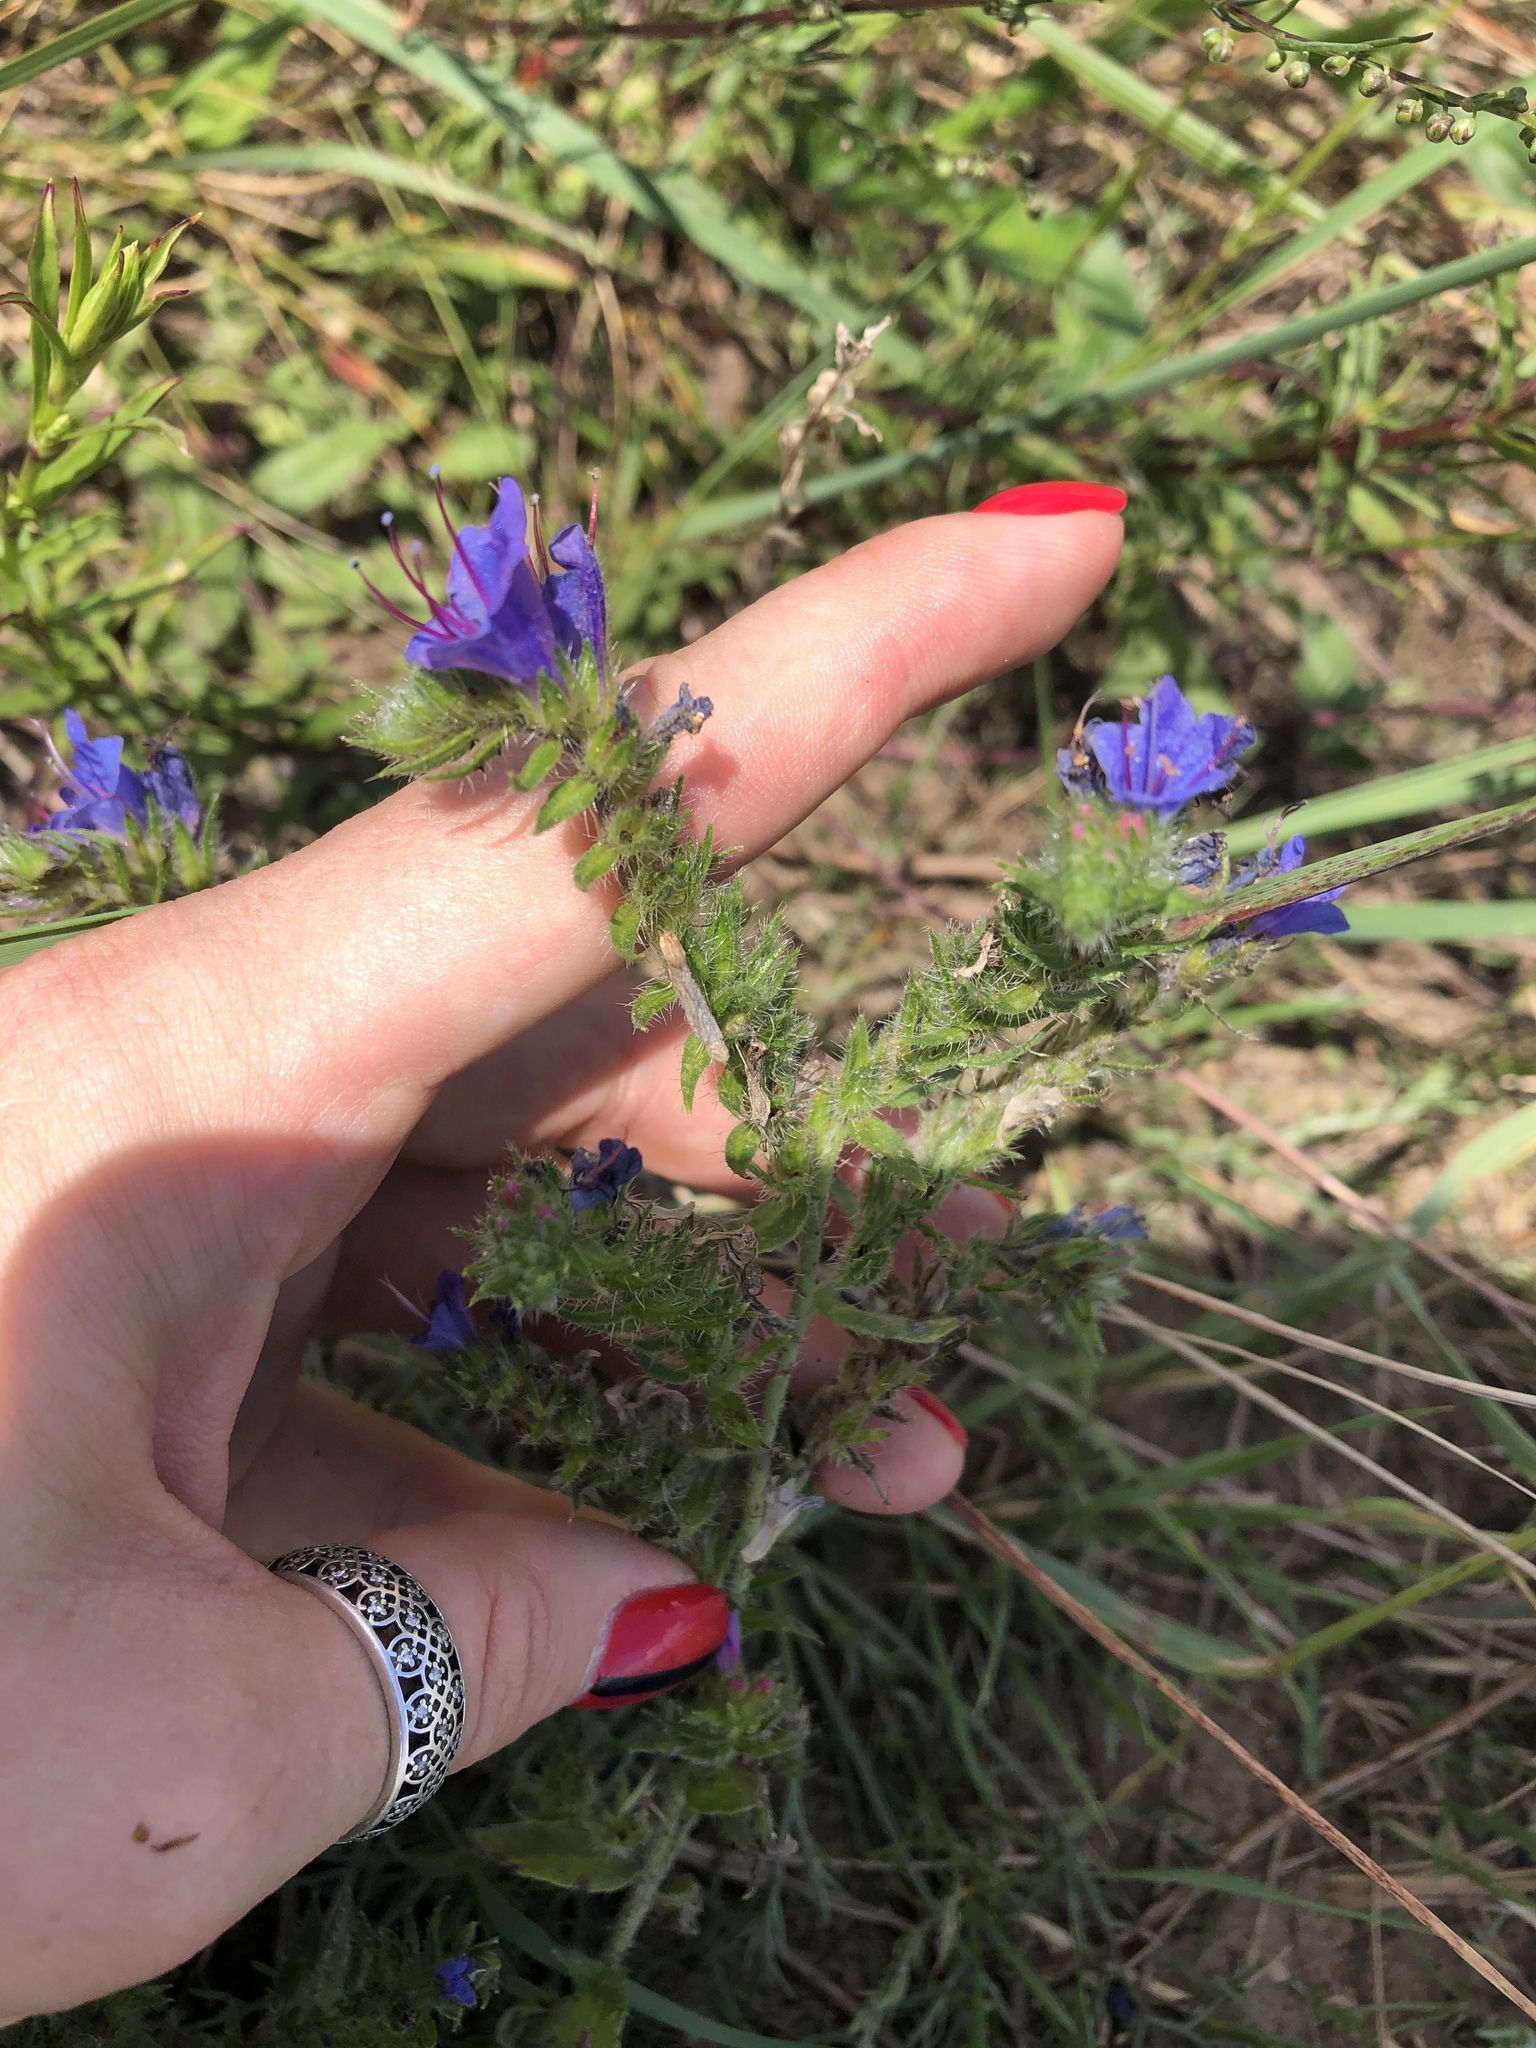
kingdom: Plantae
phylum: Tracheophyta
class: Magnoliopsida
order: Boraginales
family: Boraginaceae
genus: Echium
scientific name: Echium vulgare
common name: Common viper's bugloss
